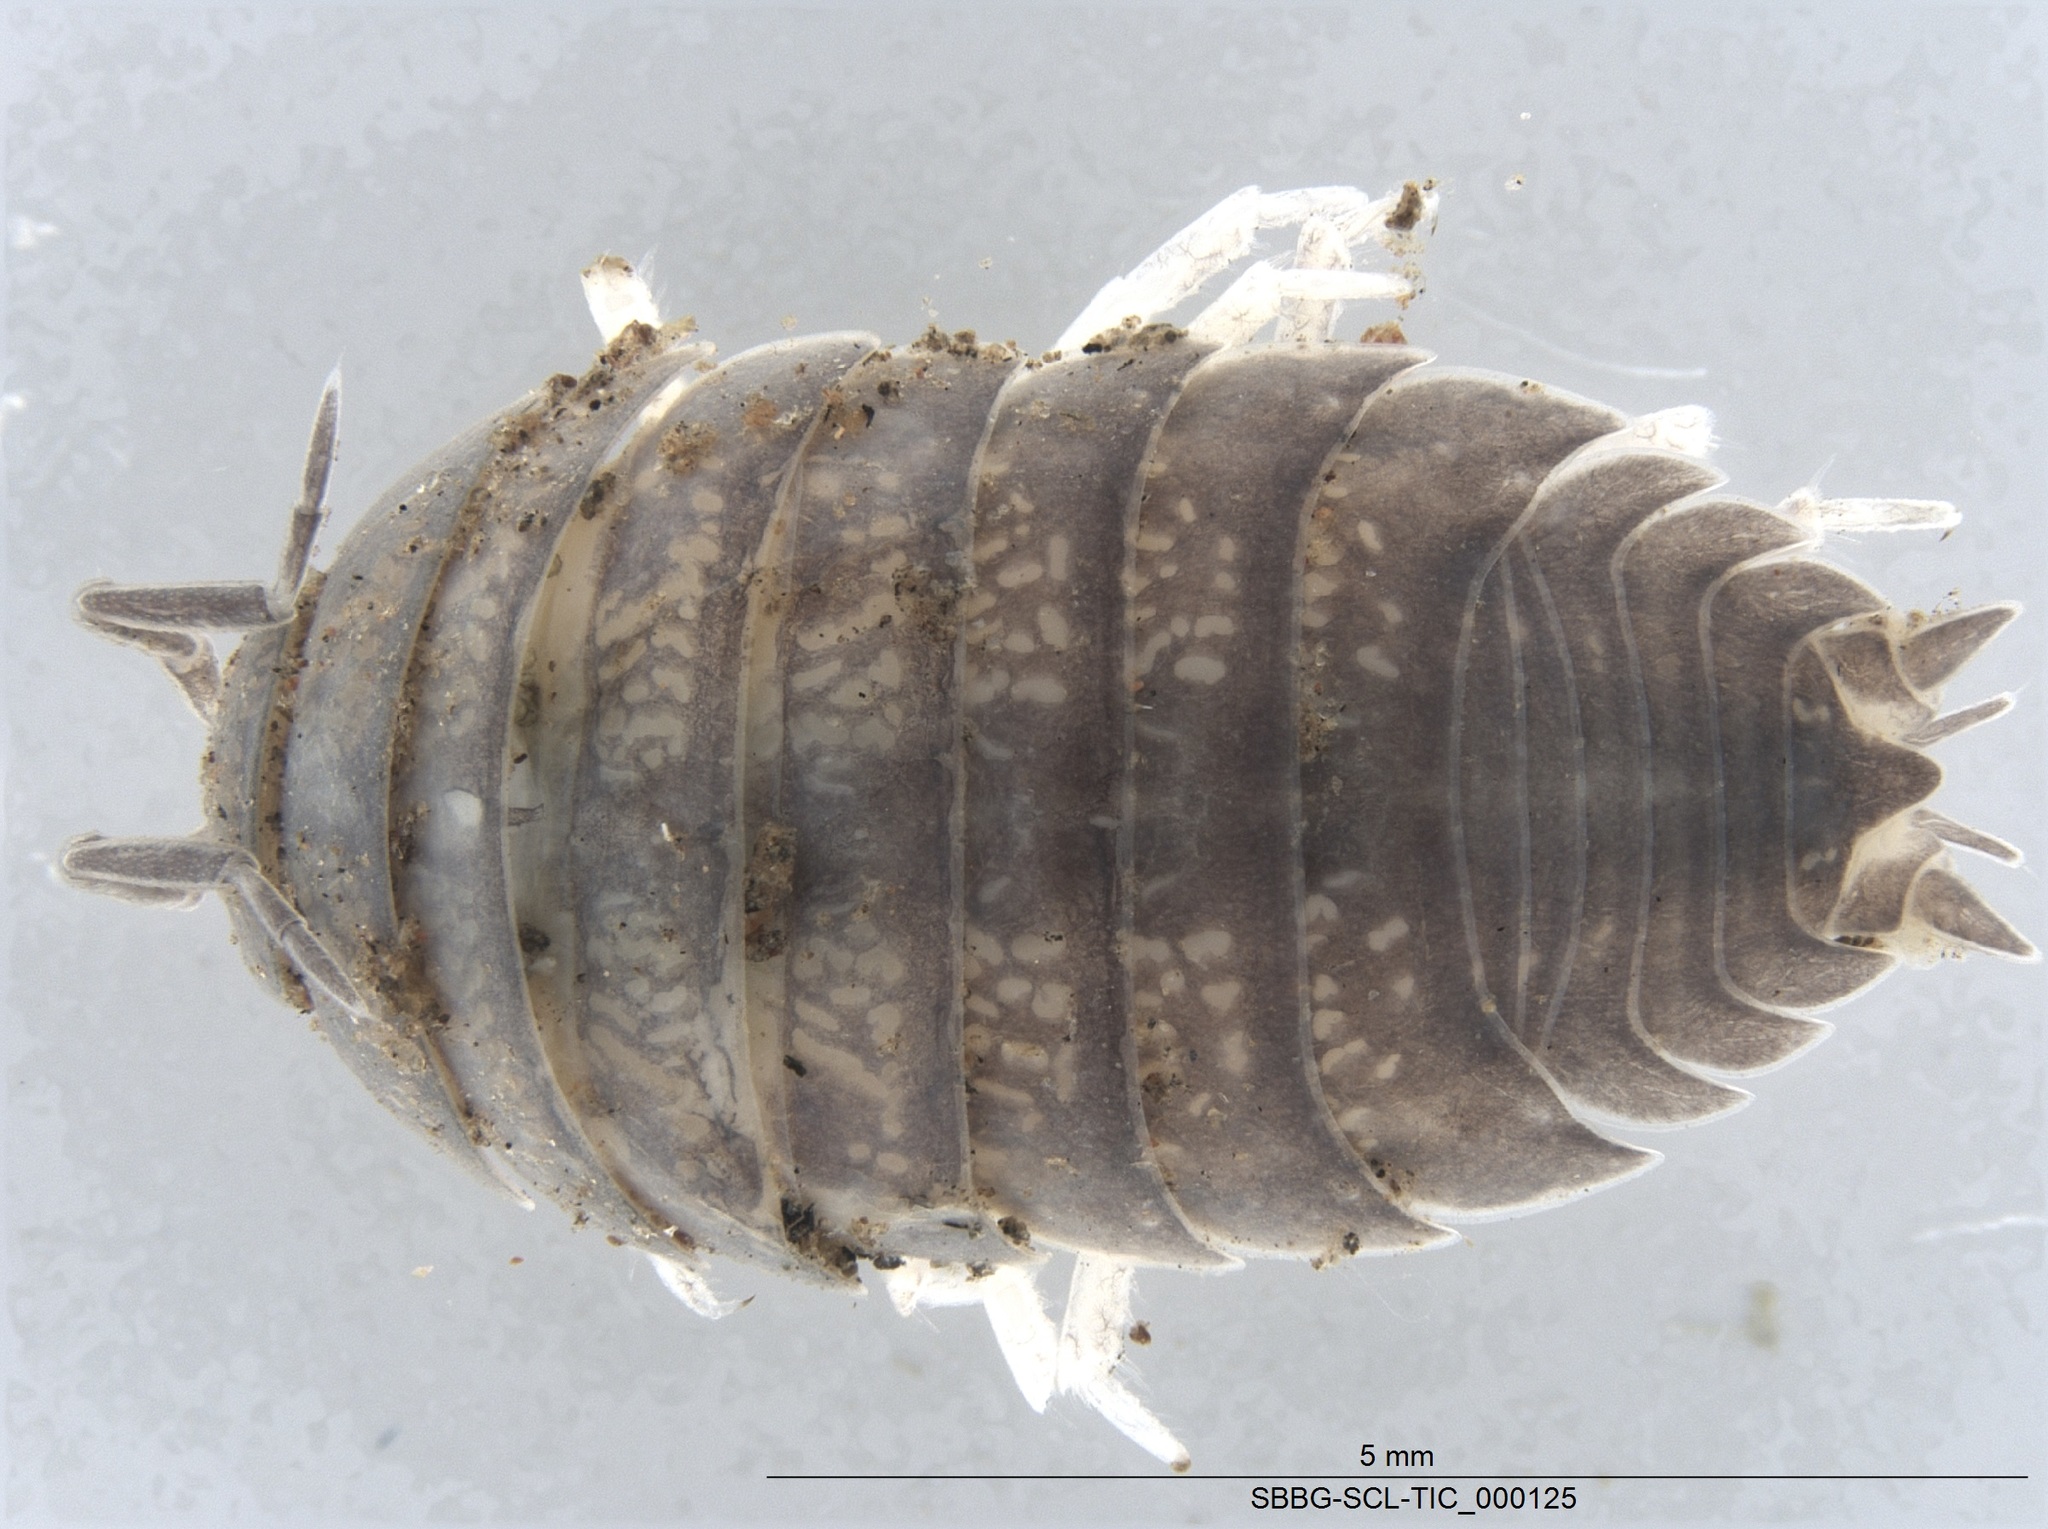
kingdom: Animalia
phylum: Arthropoda
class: Malacostraca
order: Isopoda
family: Porcellionidae
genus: Porcellio
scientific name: Porcellio laevis
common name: Swift woodlouse
